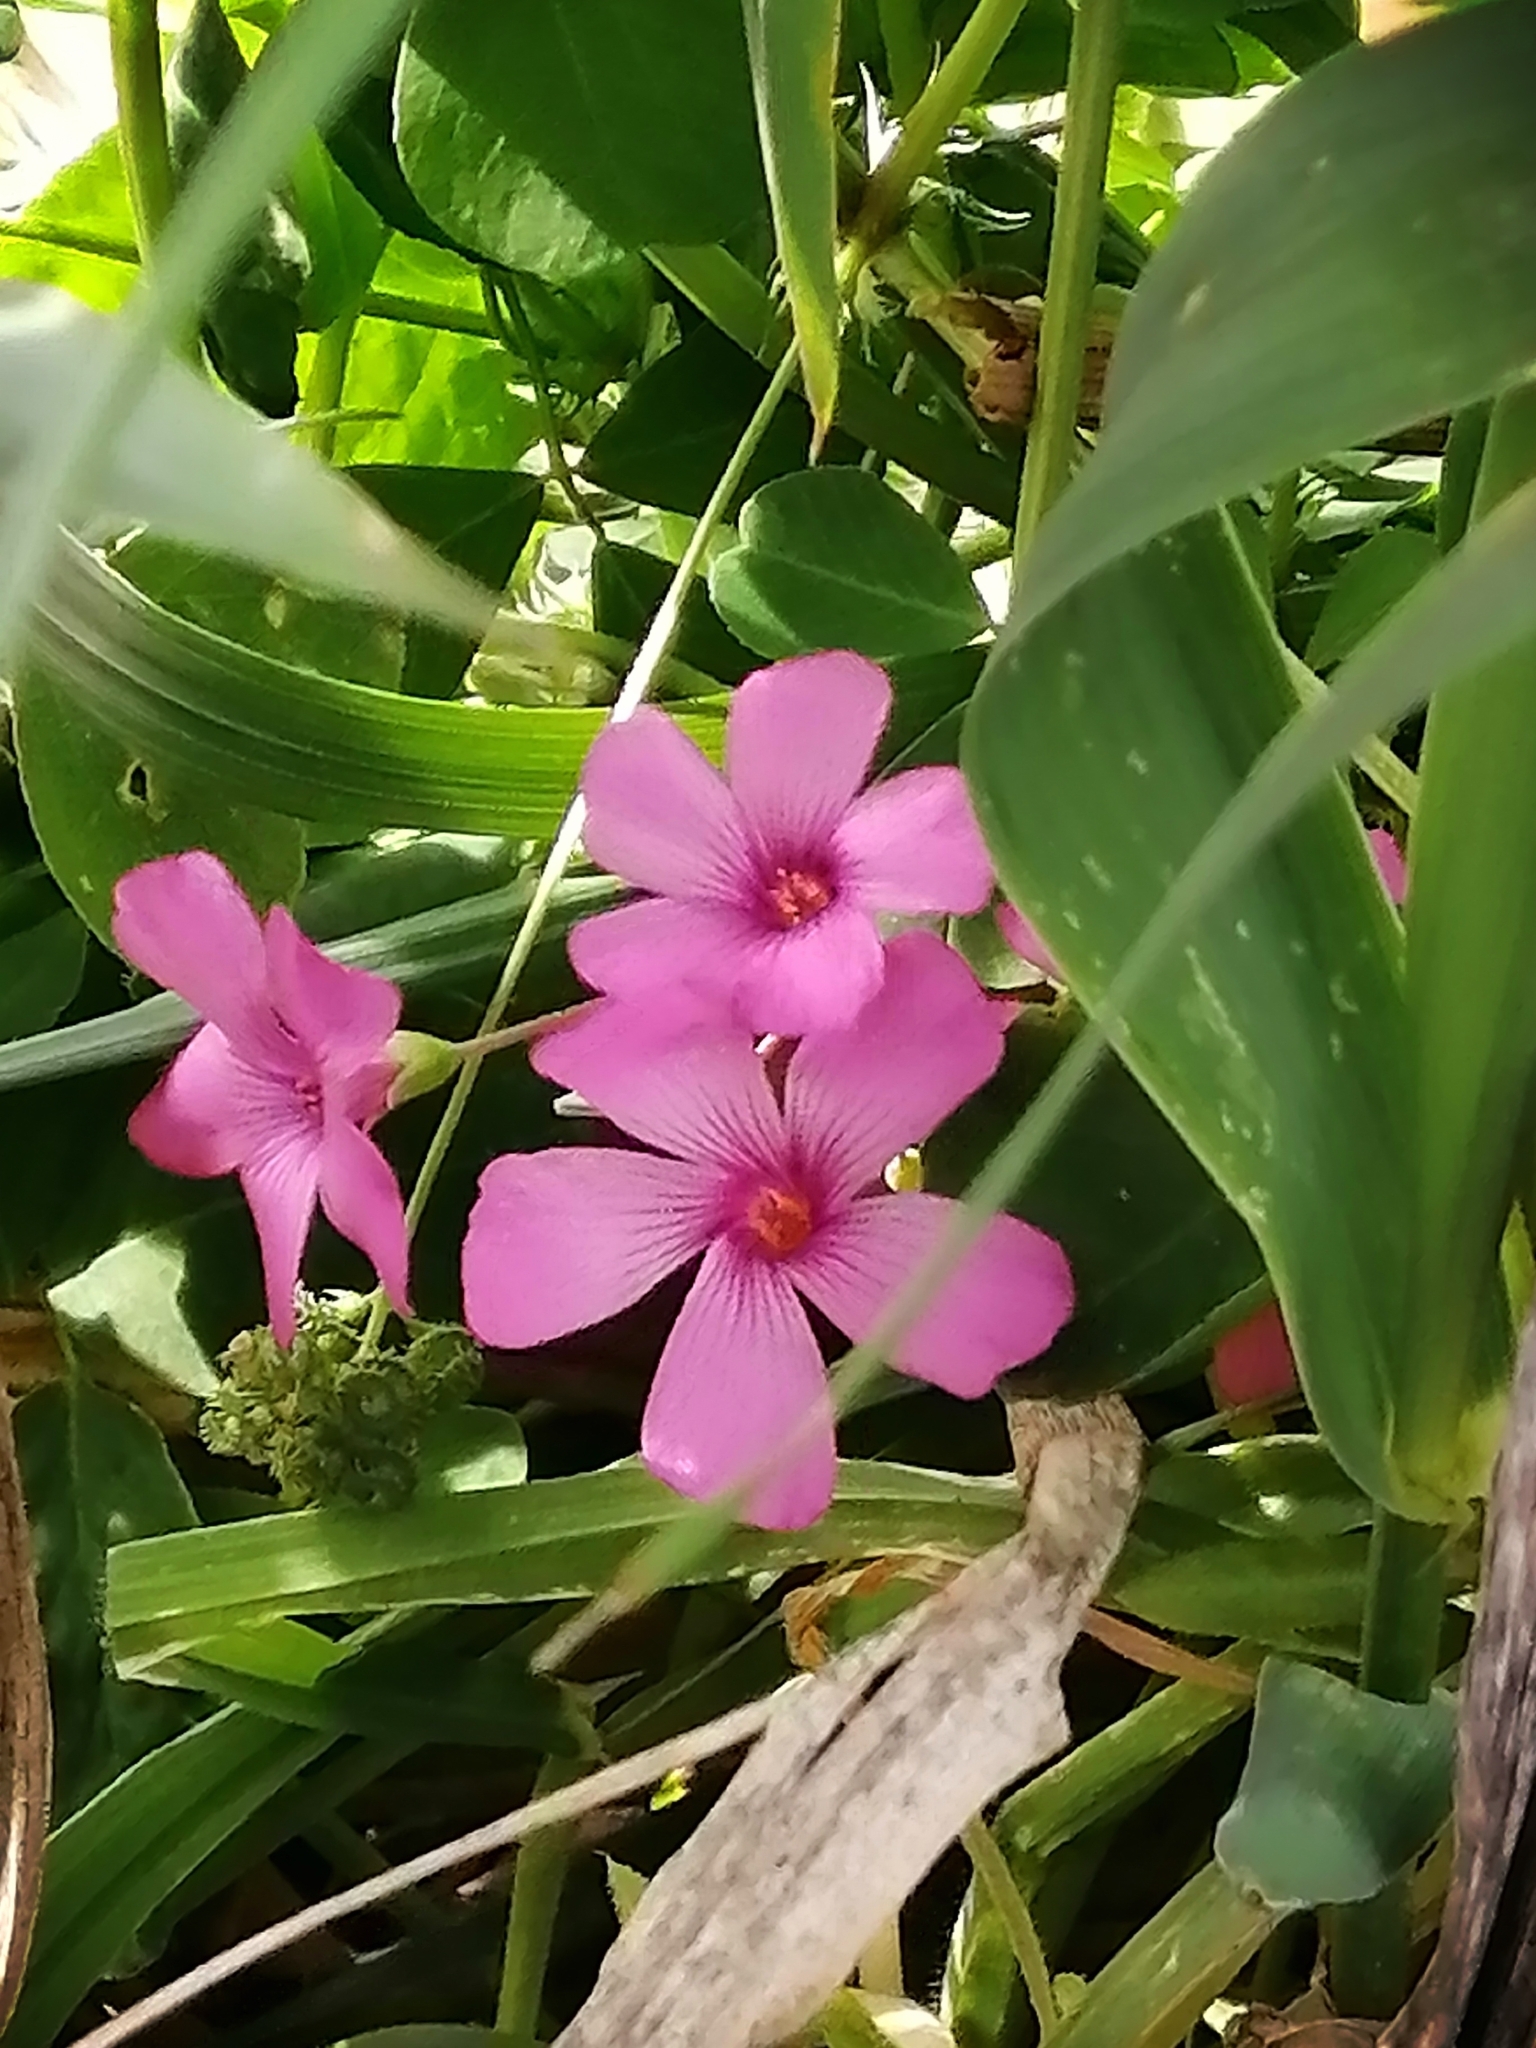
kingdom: Plantae
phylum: Tracheophyta
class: Magnoliopsida
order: Oxalidales
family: Oxalidaceae
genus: Oxalis
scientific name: Oxalis articulata
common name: Pink-sorrel
